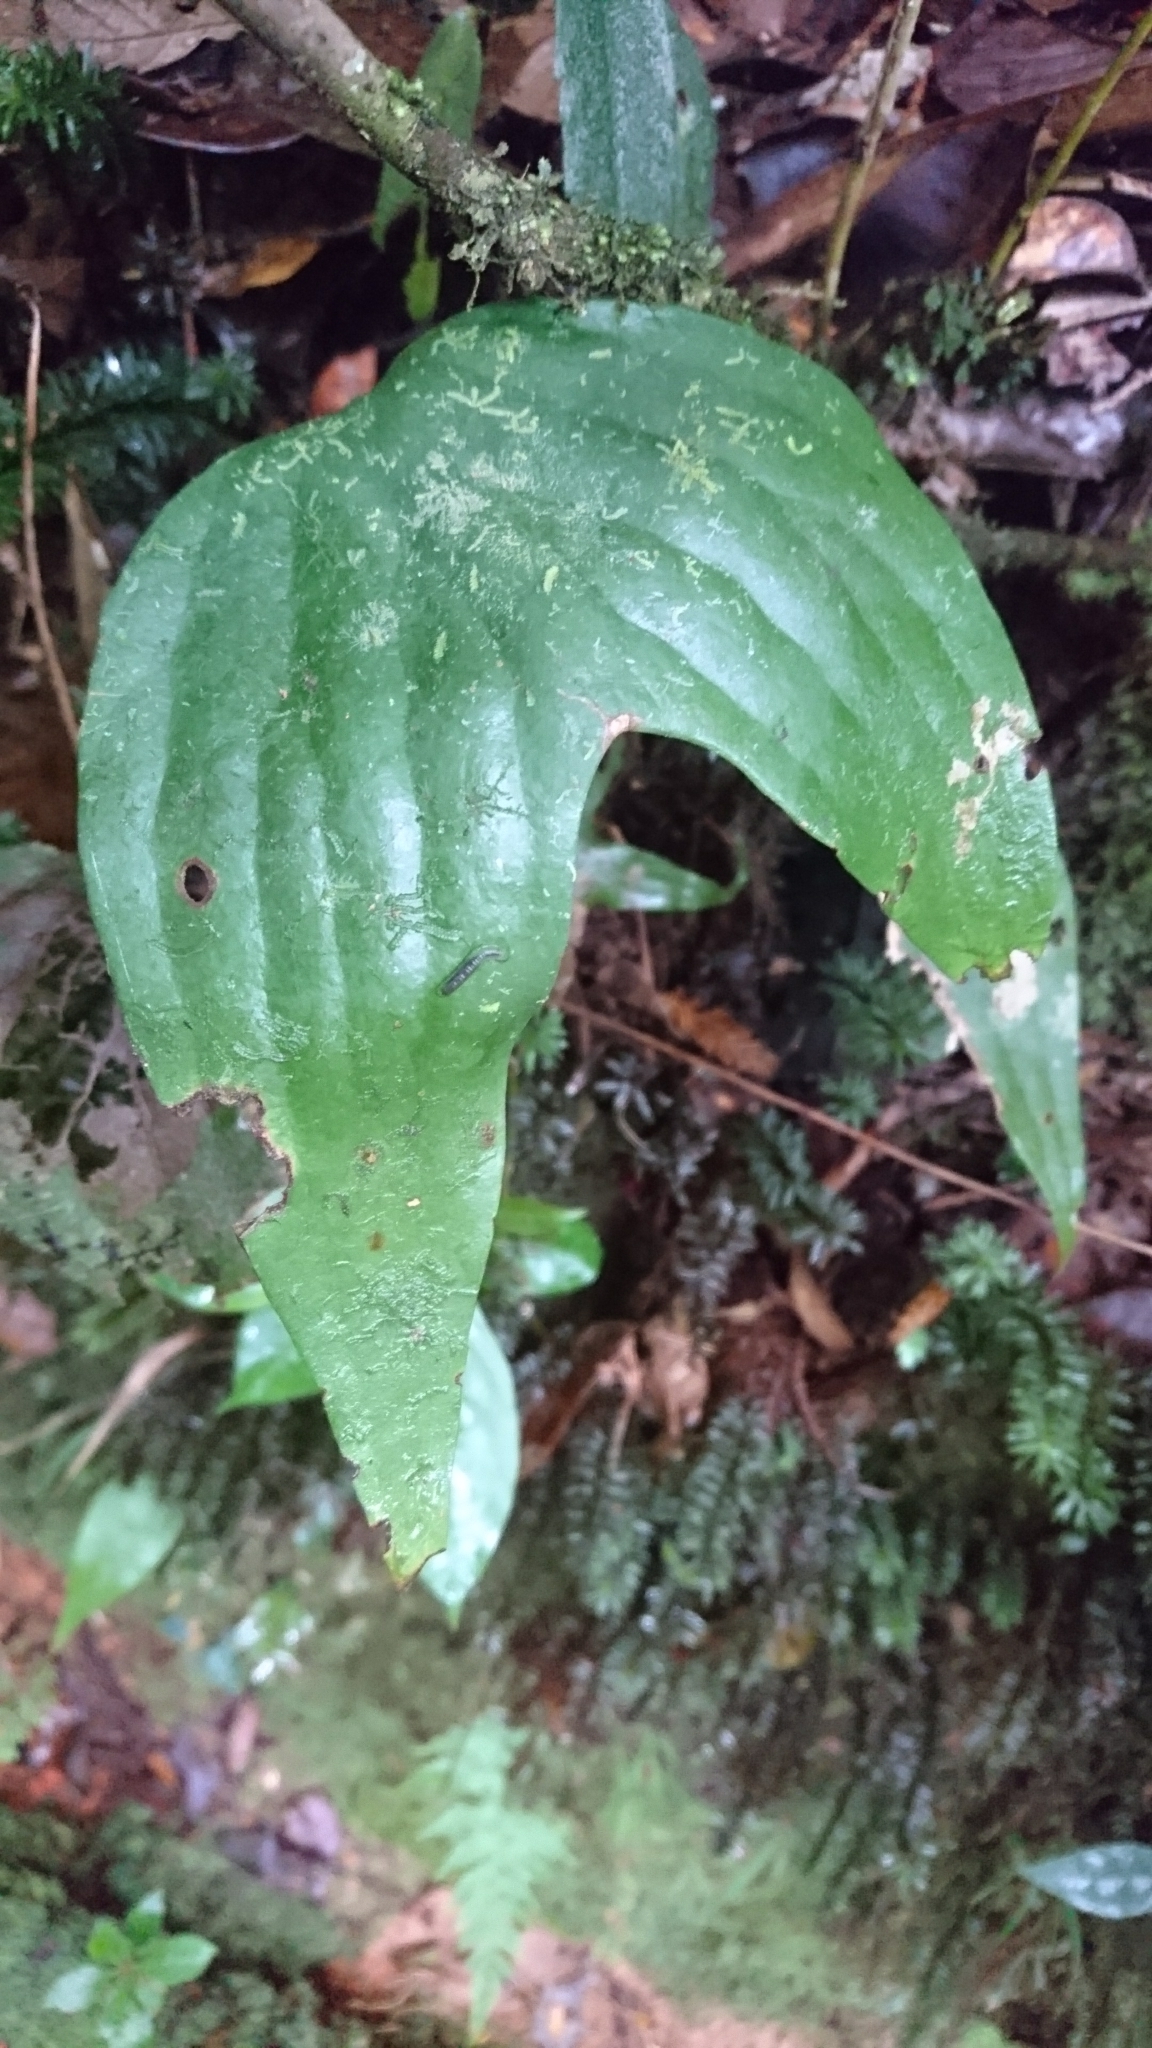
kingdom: Plantae
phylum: Tracheophyta
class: Polypodiopsida
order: Gleicheniales
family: Dipteridaceae
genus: Cheiropleuria
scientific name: Cheiropleuria bicuspis
